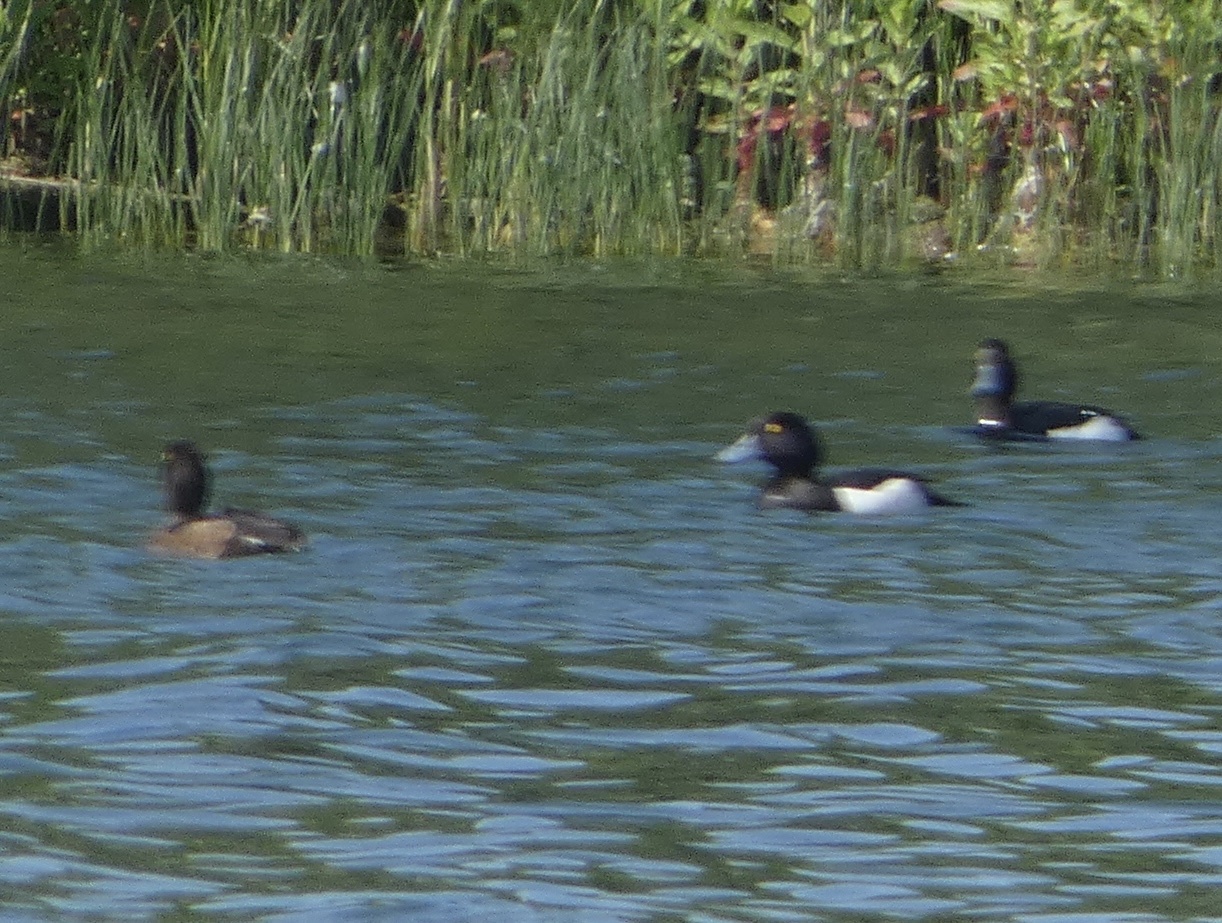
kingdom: Animalia
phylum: Chordata
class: Aves
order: Anseriformes
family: Anatidae
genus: Aythya
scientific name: Aythya fuligula
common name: Tufted duck
